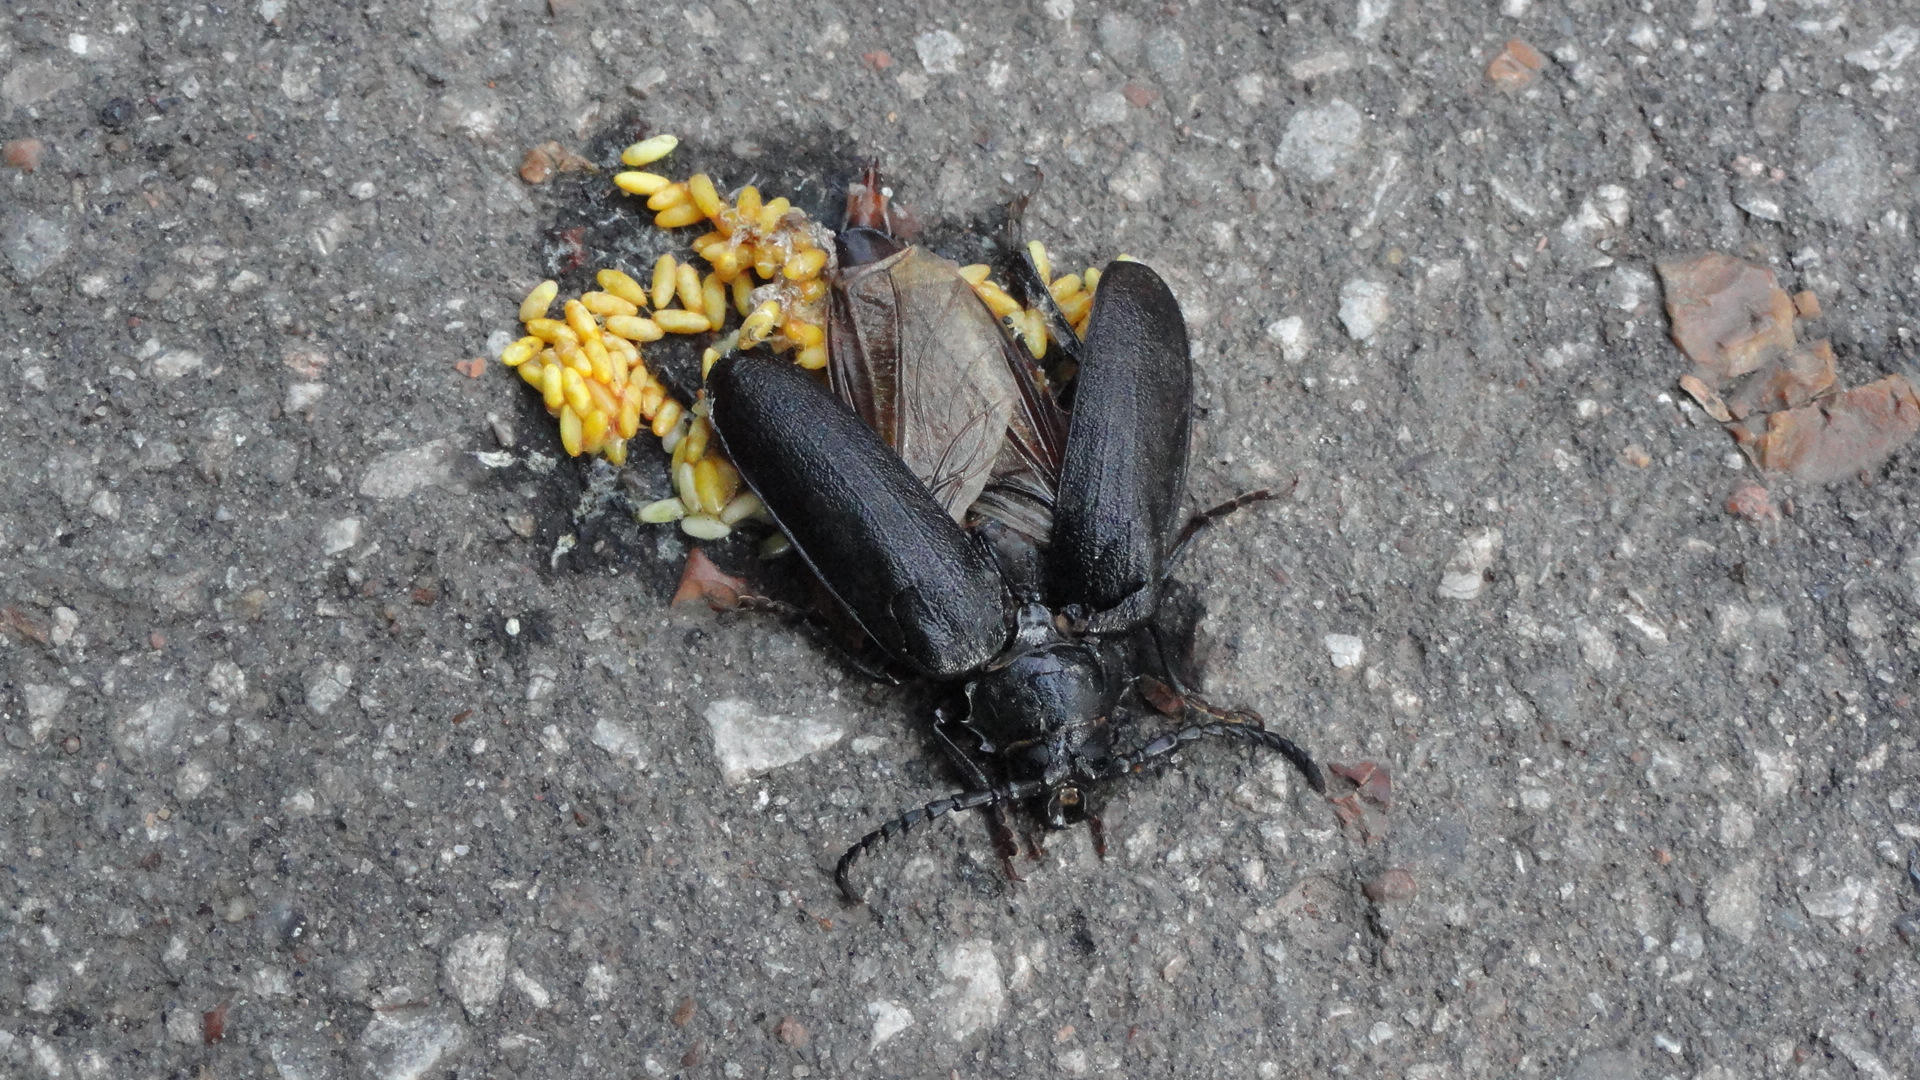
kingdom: Animalia
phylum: Arthropoda
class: Insecta
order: Coleoptera
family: Cerambycidae
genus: Prionus
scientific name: Prionus coriarius
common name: Tanner beetle
